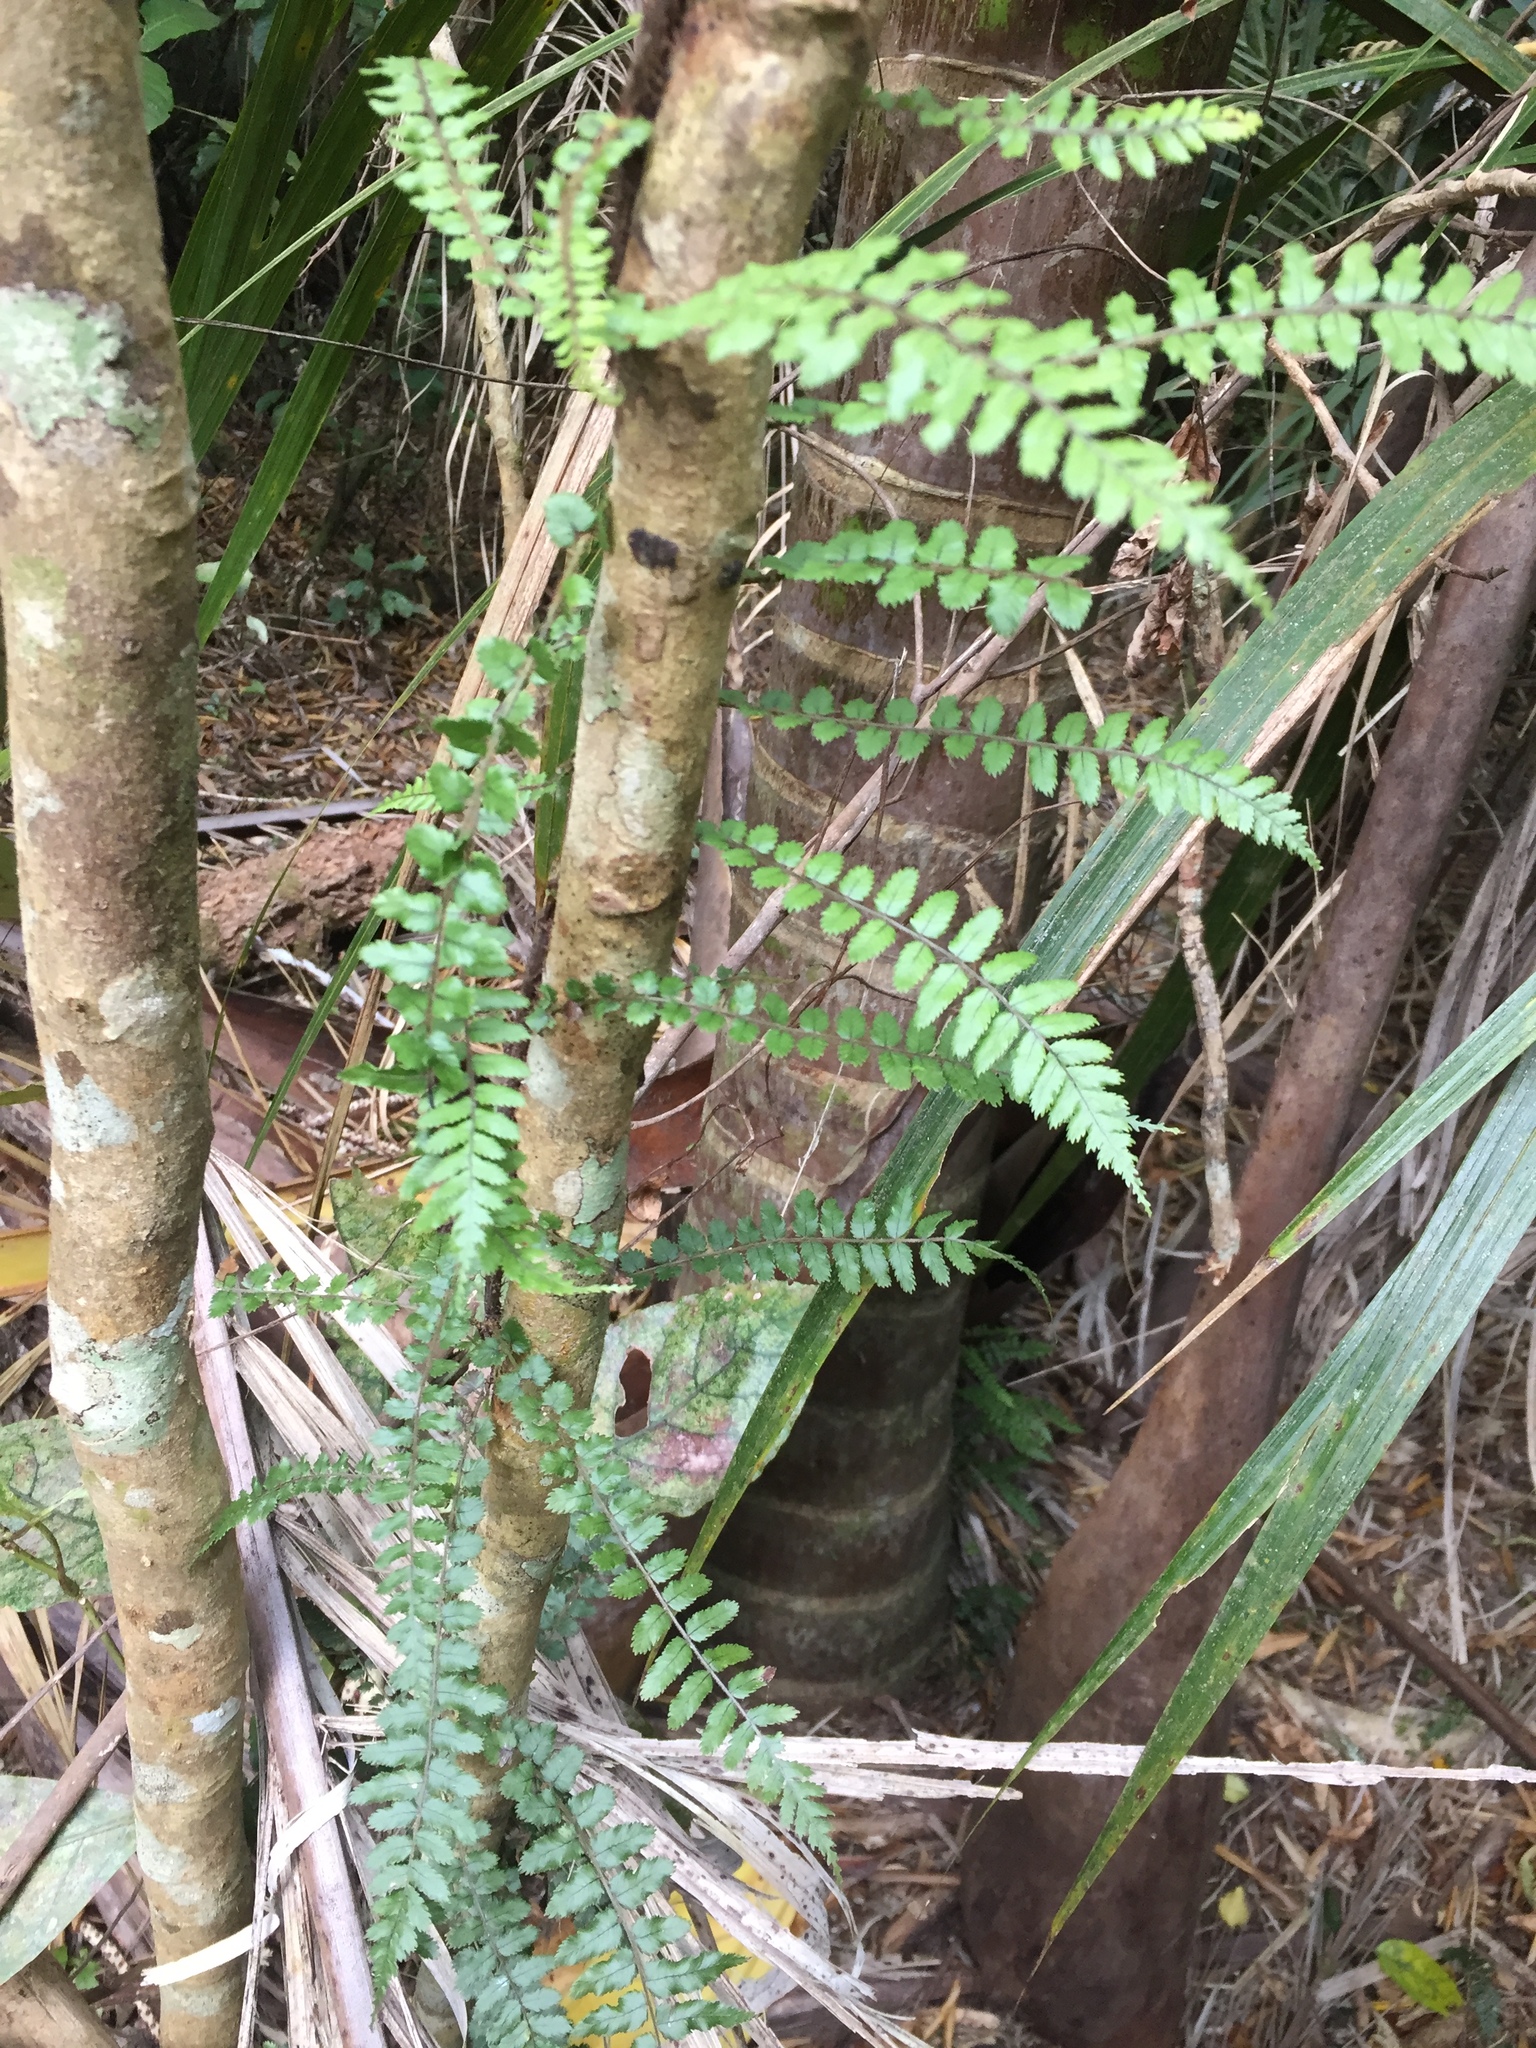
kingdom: Plantae
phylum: Tracheophyta
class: Polypodiopsida
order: Polypodiales
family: Blechnaceae
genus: Icarus
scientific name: Icarus filiformis
